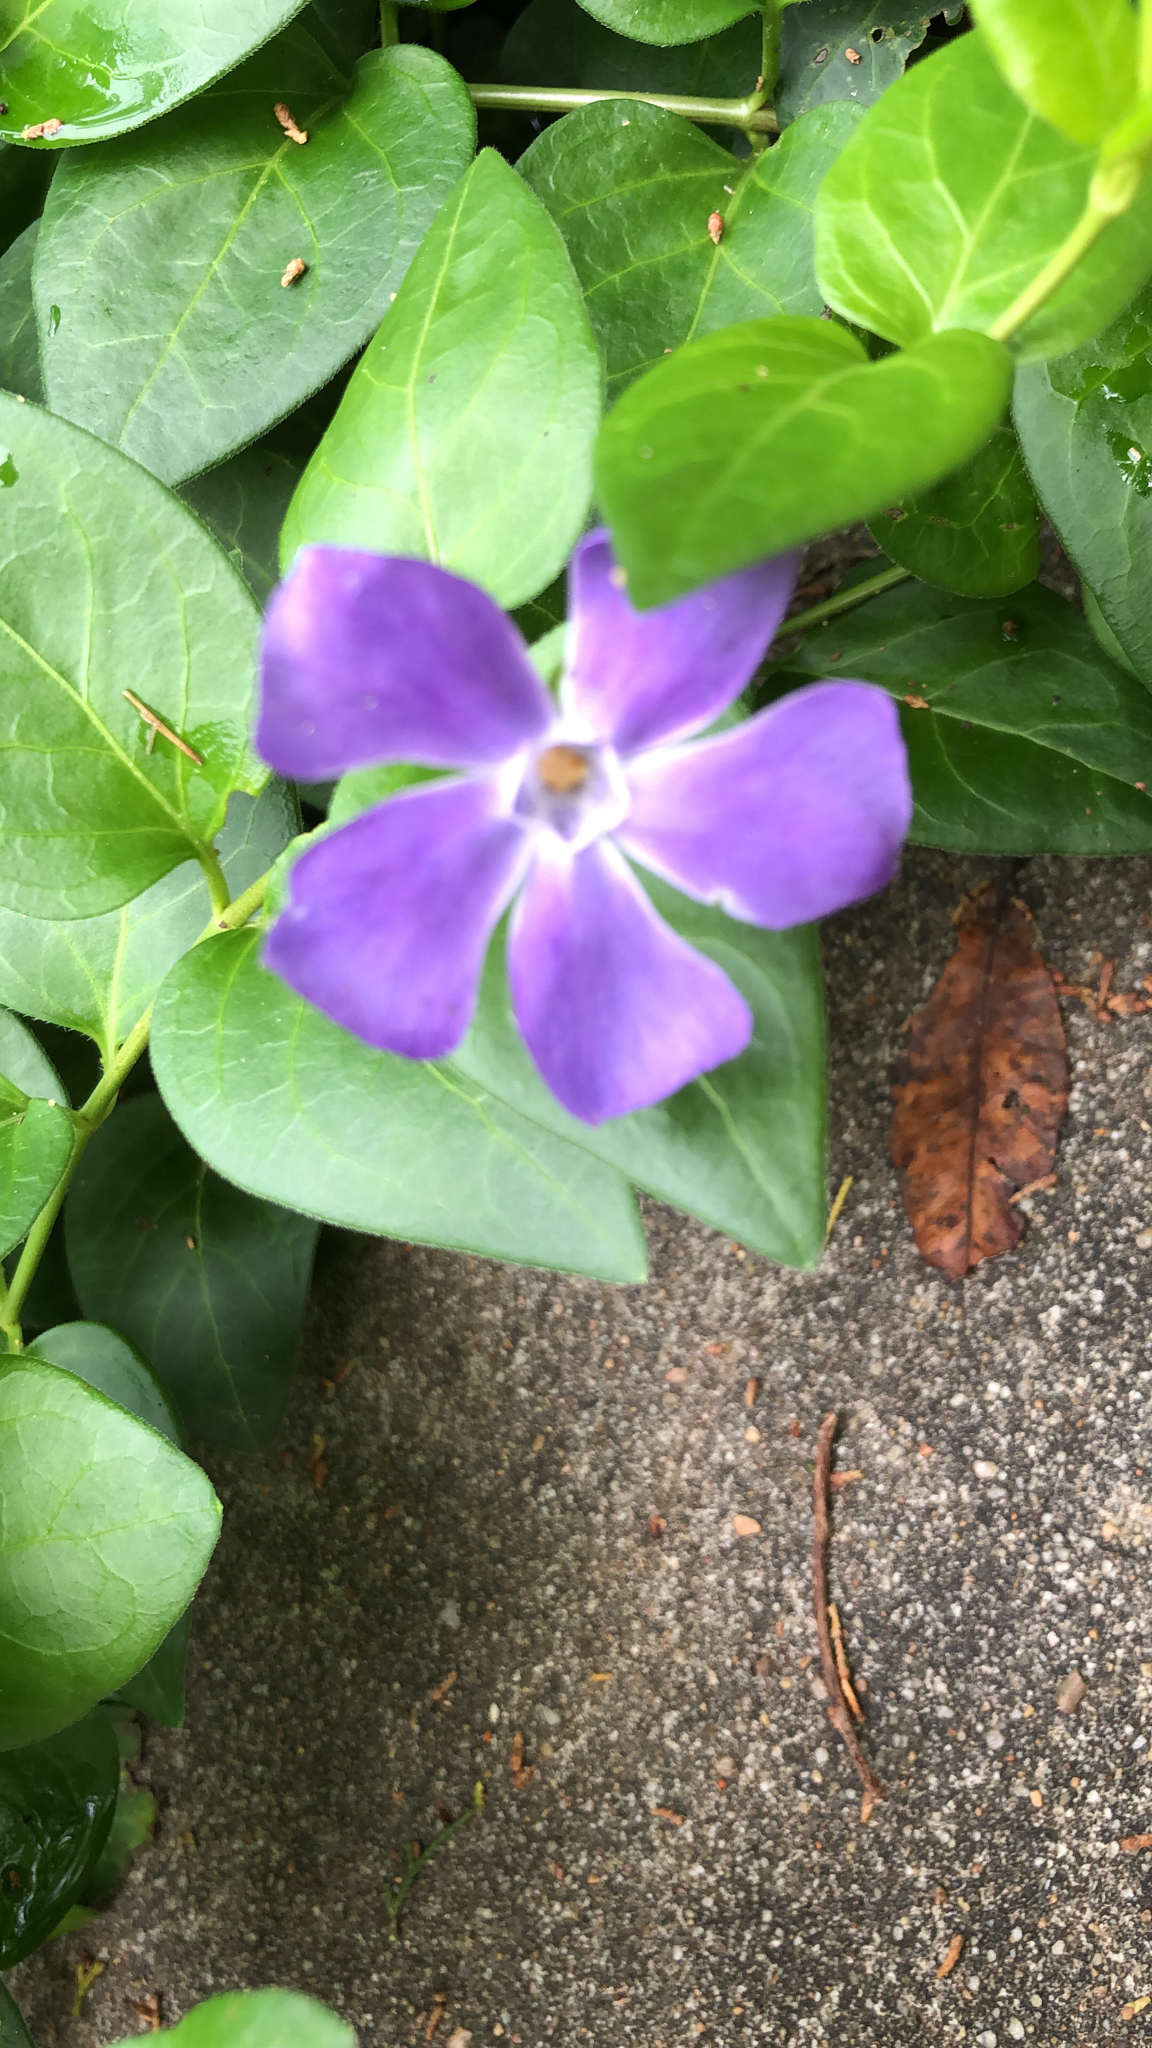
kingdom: Plantae
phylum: Tracheophyta
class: Magnoliopsida
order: Gentianales
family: Apocynaceae
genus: Vinca
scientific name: Vinca major
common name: Greater periwinkle
